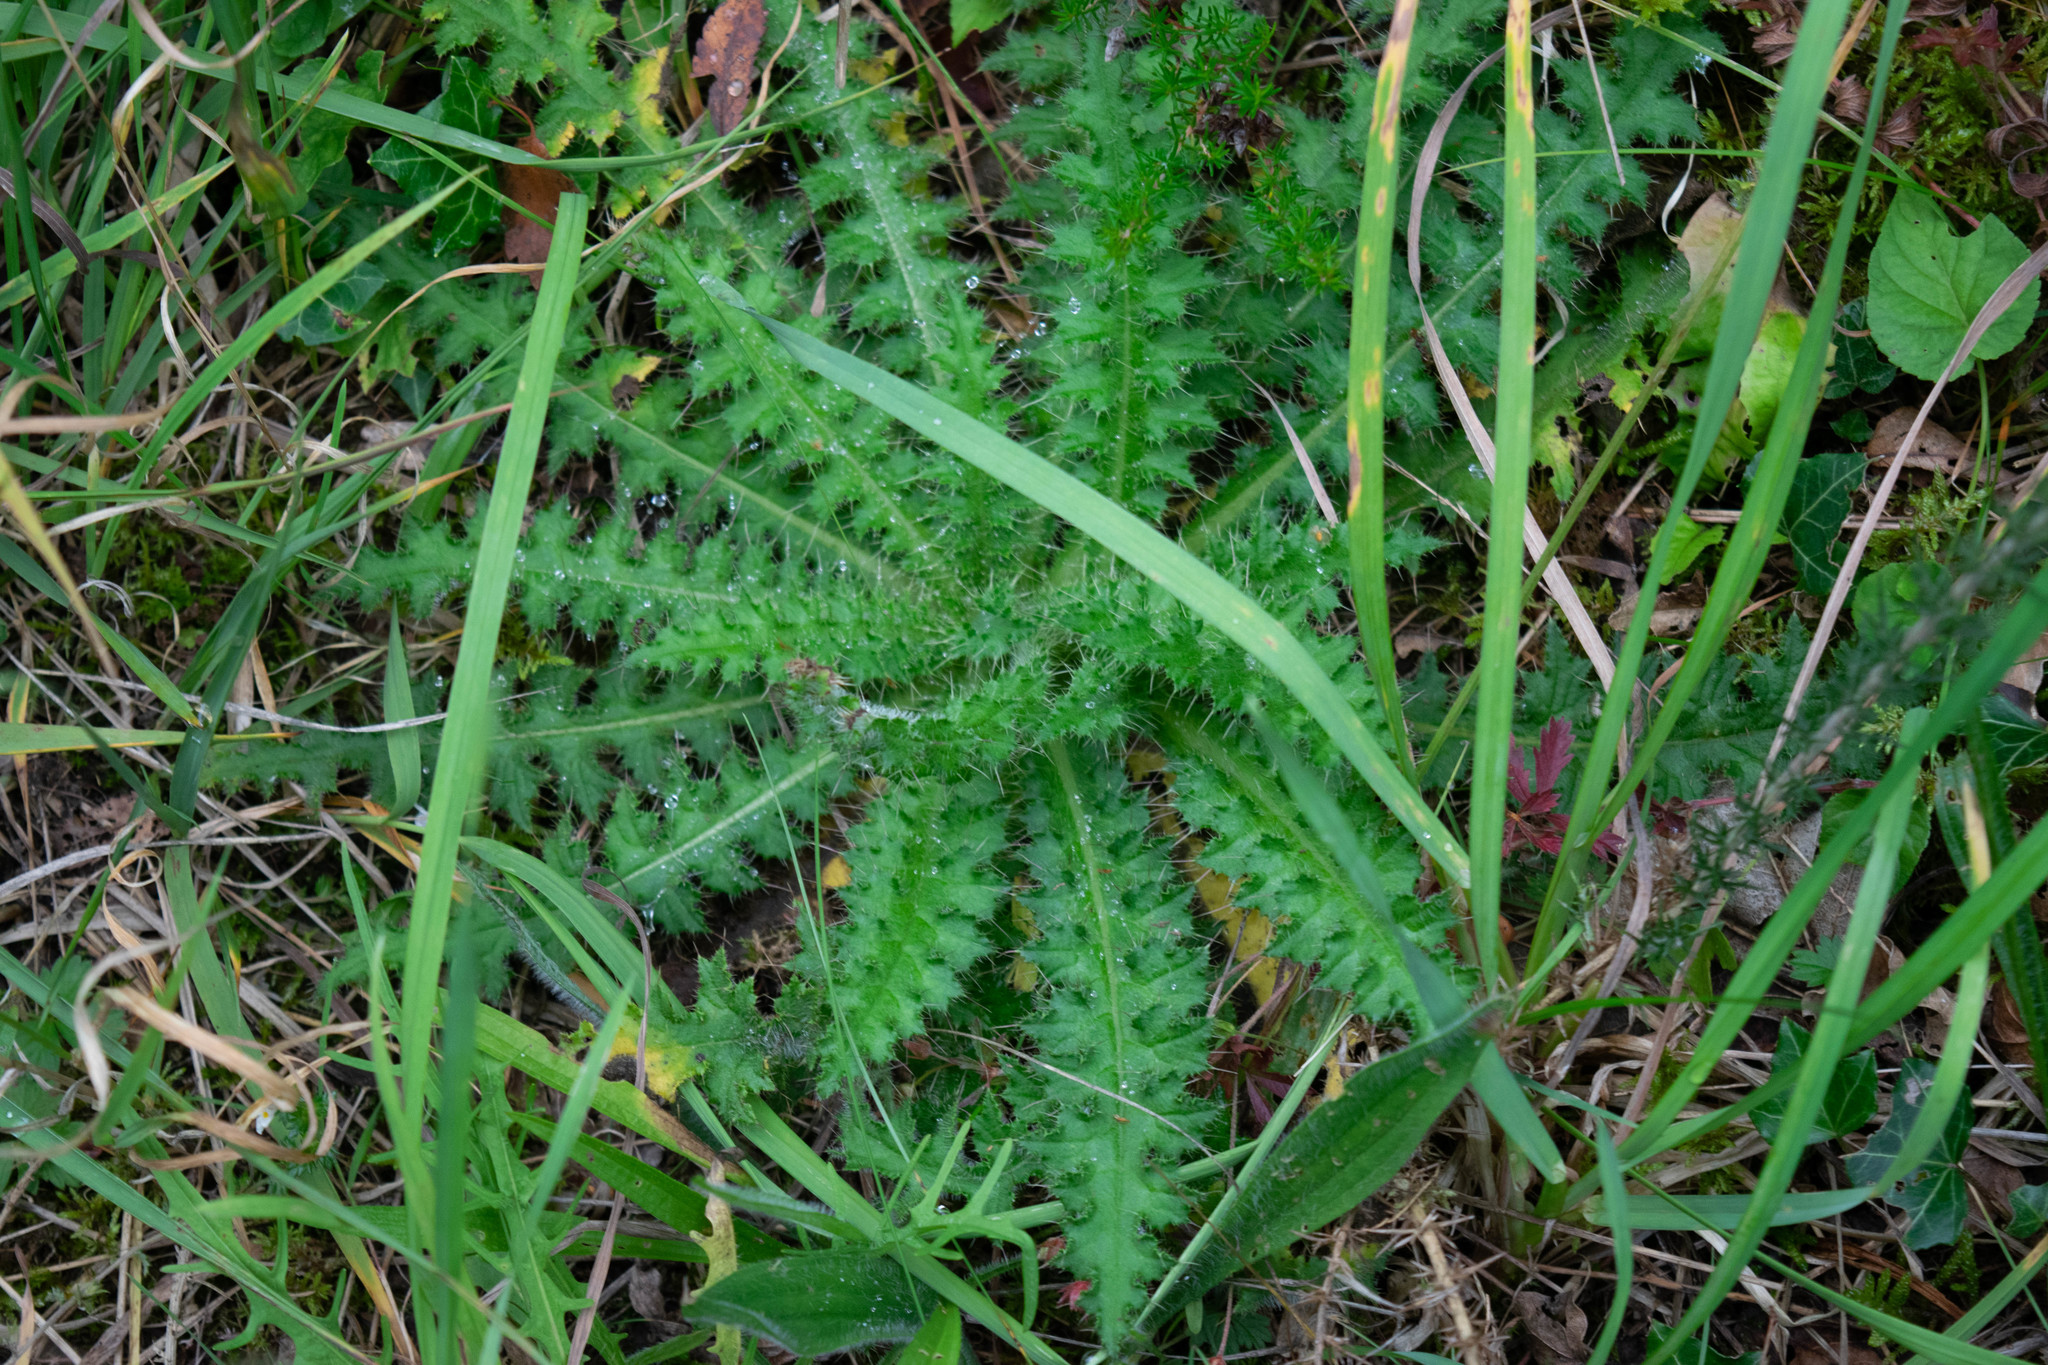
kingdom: Plantae
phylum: Tracheophyta
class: Magnoliopsida
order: Asterales
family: Asteraceae
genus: Cirsium
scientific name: Cirsium palustre
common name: Marsh thistle
